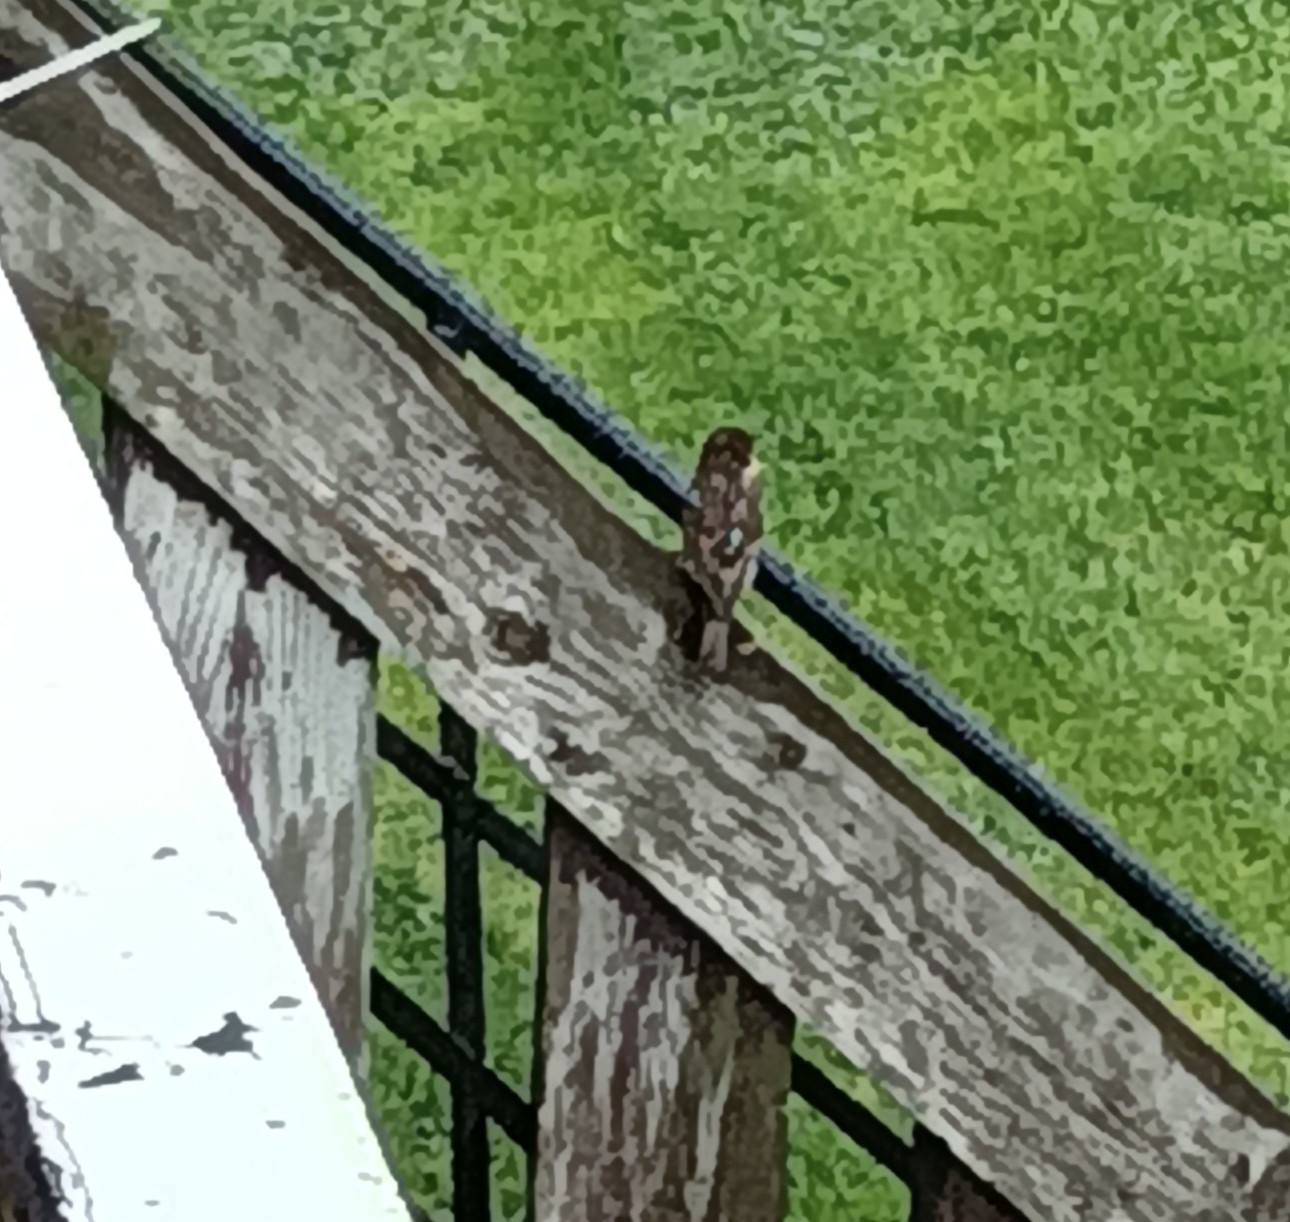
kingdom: Animalia
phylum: Chordata
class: Aves
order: Passeriformes
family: Passeridae
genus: Passer
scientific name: Passer domesticus
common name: House sparrow
